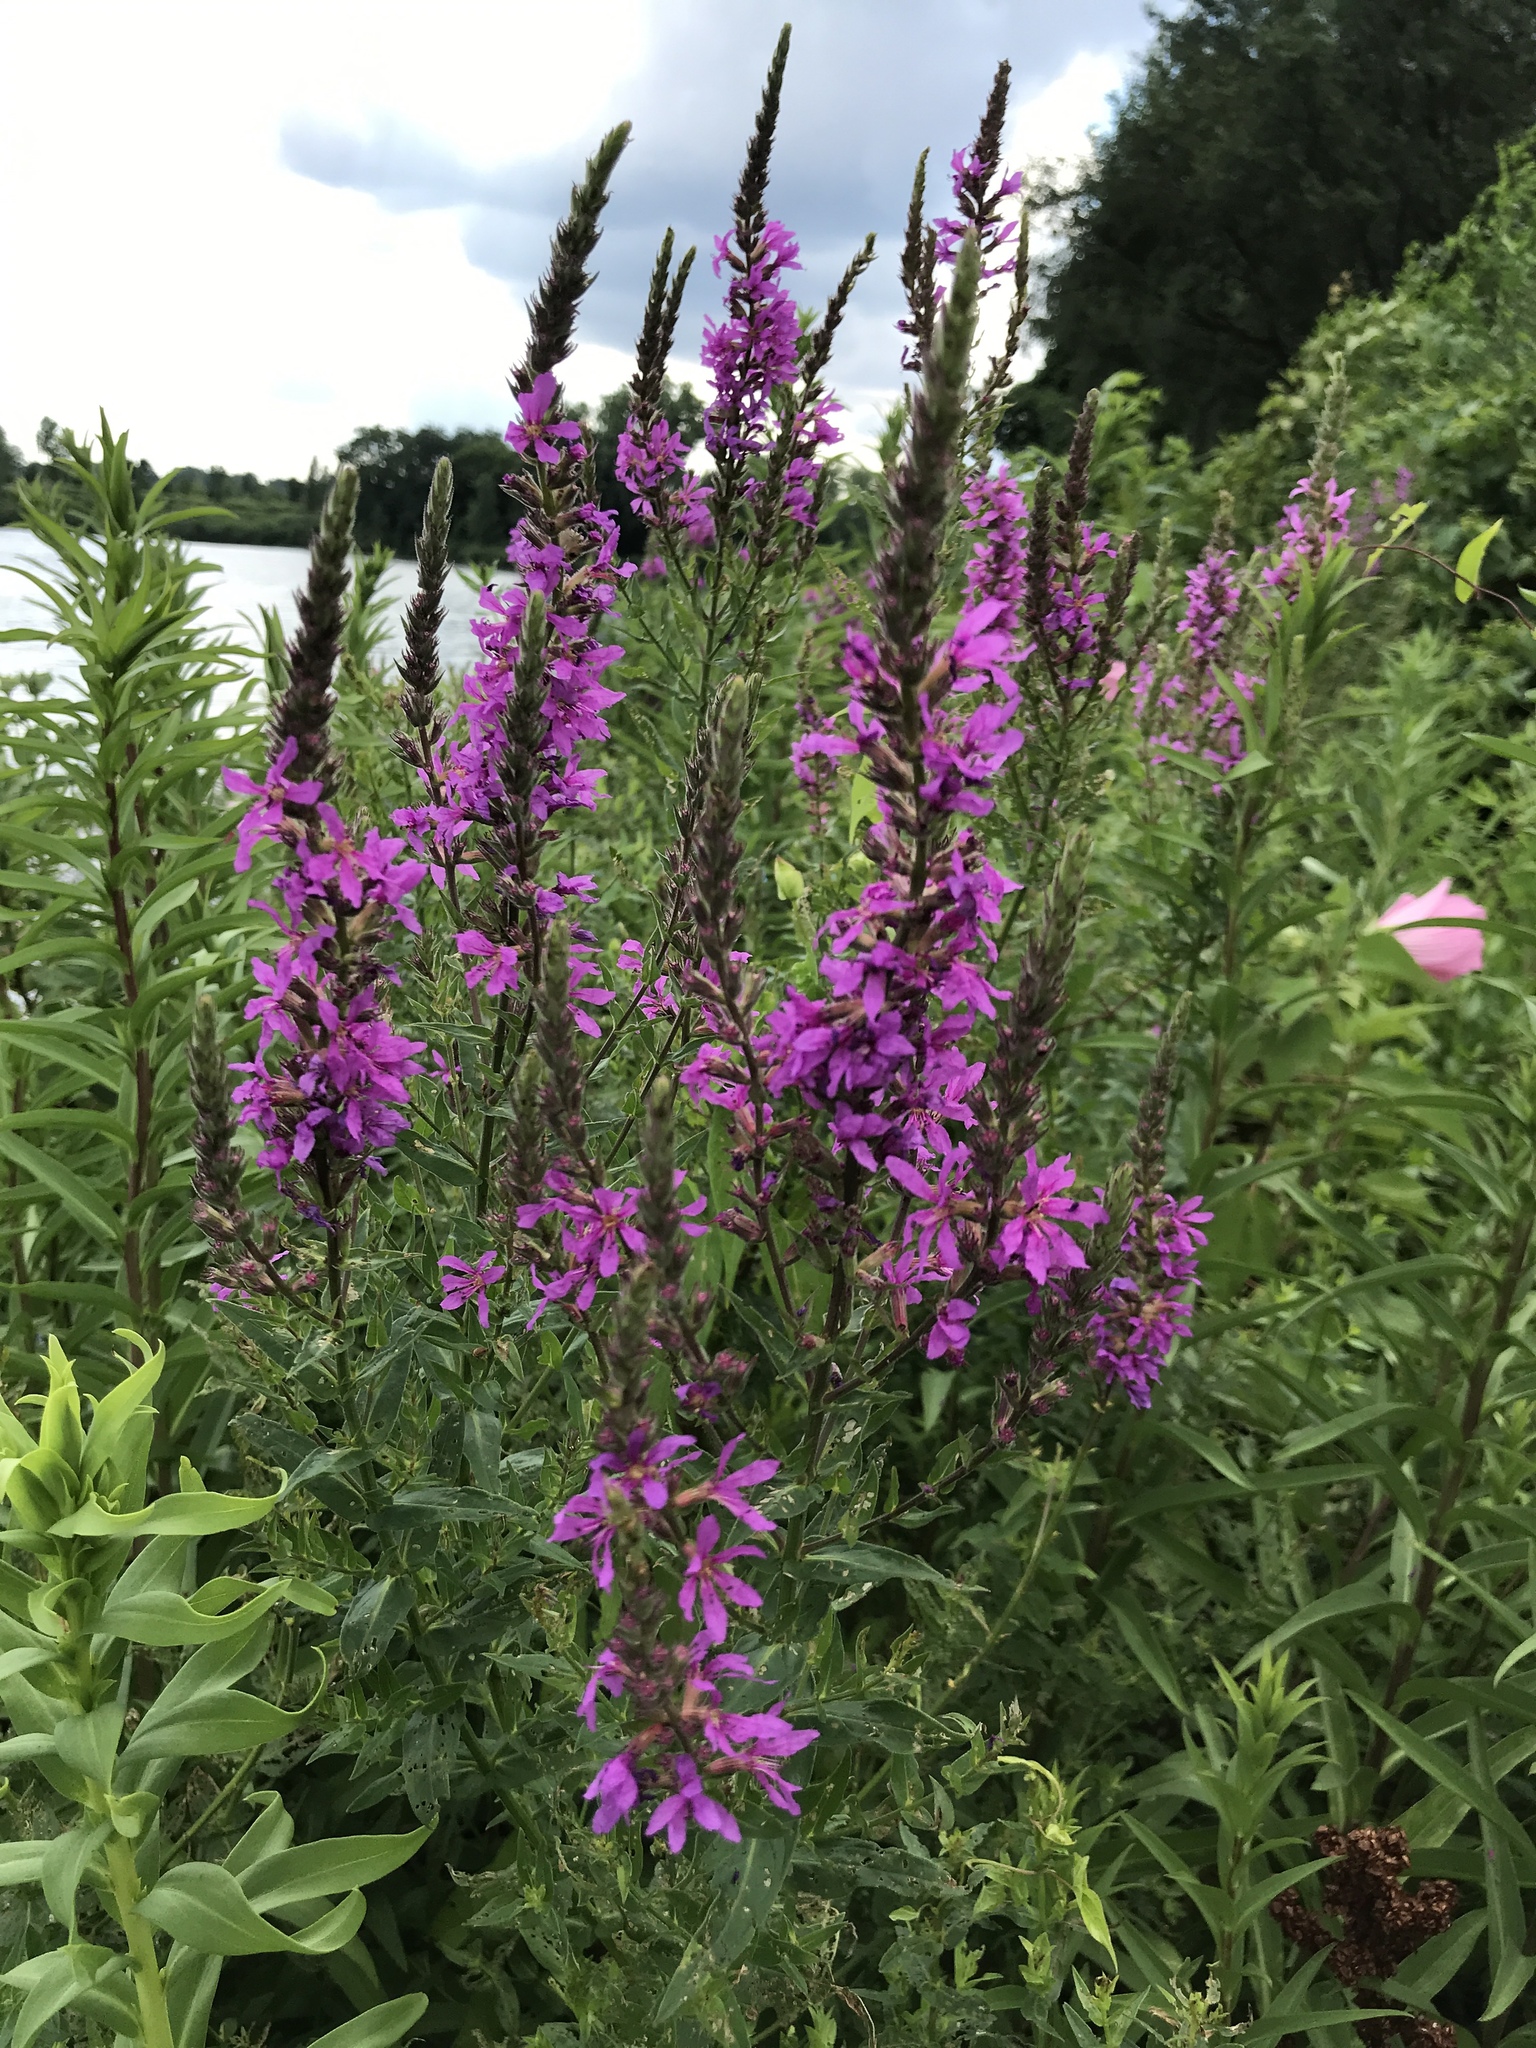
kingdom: Plantae
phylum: Tracheophyta
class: Magnoliopsida
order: Myrtales
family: Lythraceae
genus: Lythrum
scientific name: Lythrum salicaria
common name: Purple loosestrife
